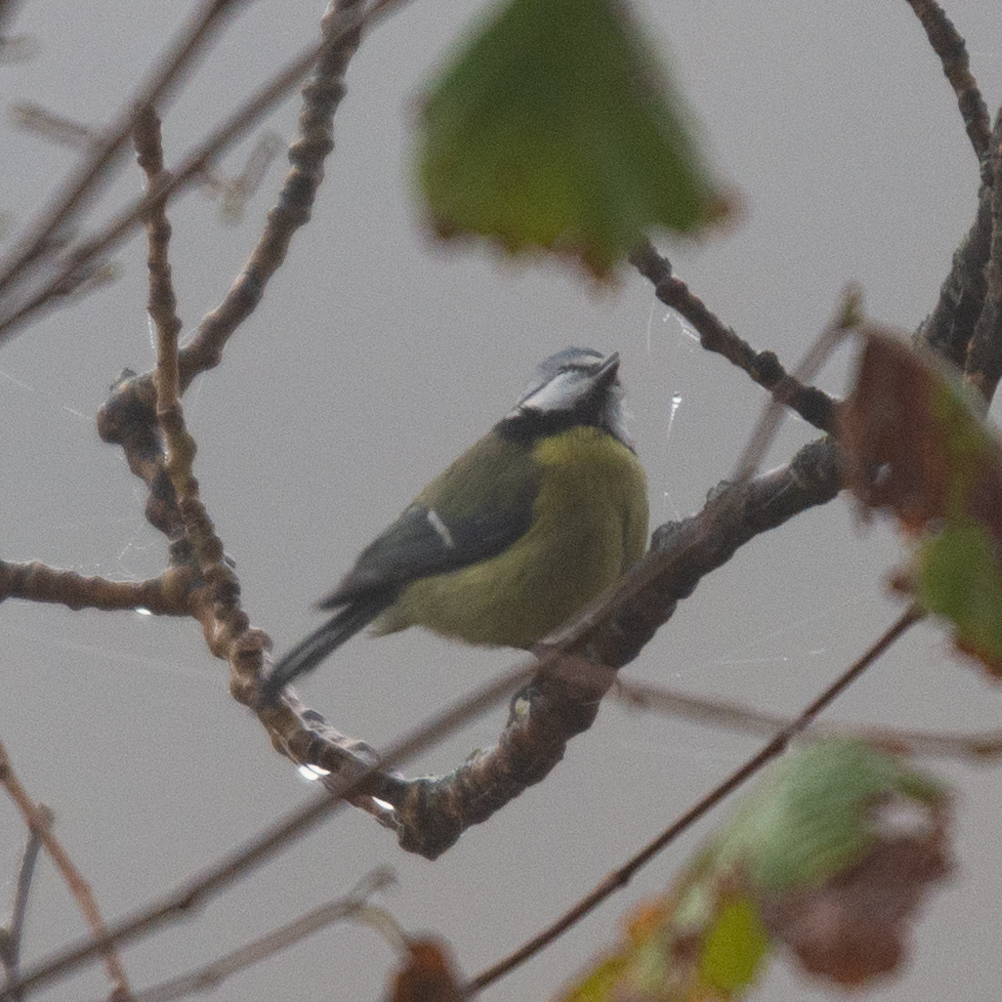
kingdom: Animalia
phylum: Chordata
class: Aves
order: Passeriformes
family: Paridae
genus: Cyanistes
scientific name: Cyanistes caeruleus
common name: Eurasian blue tit
